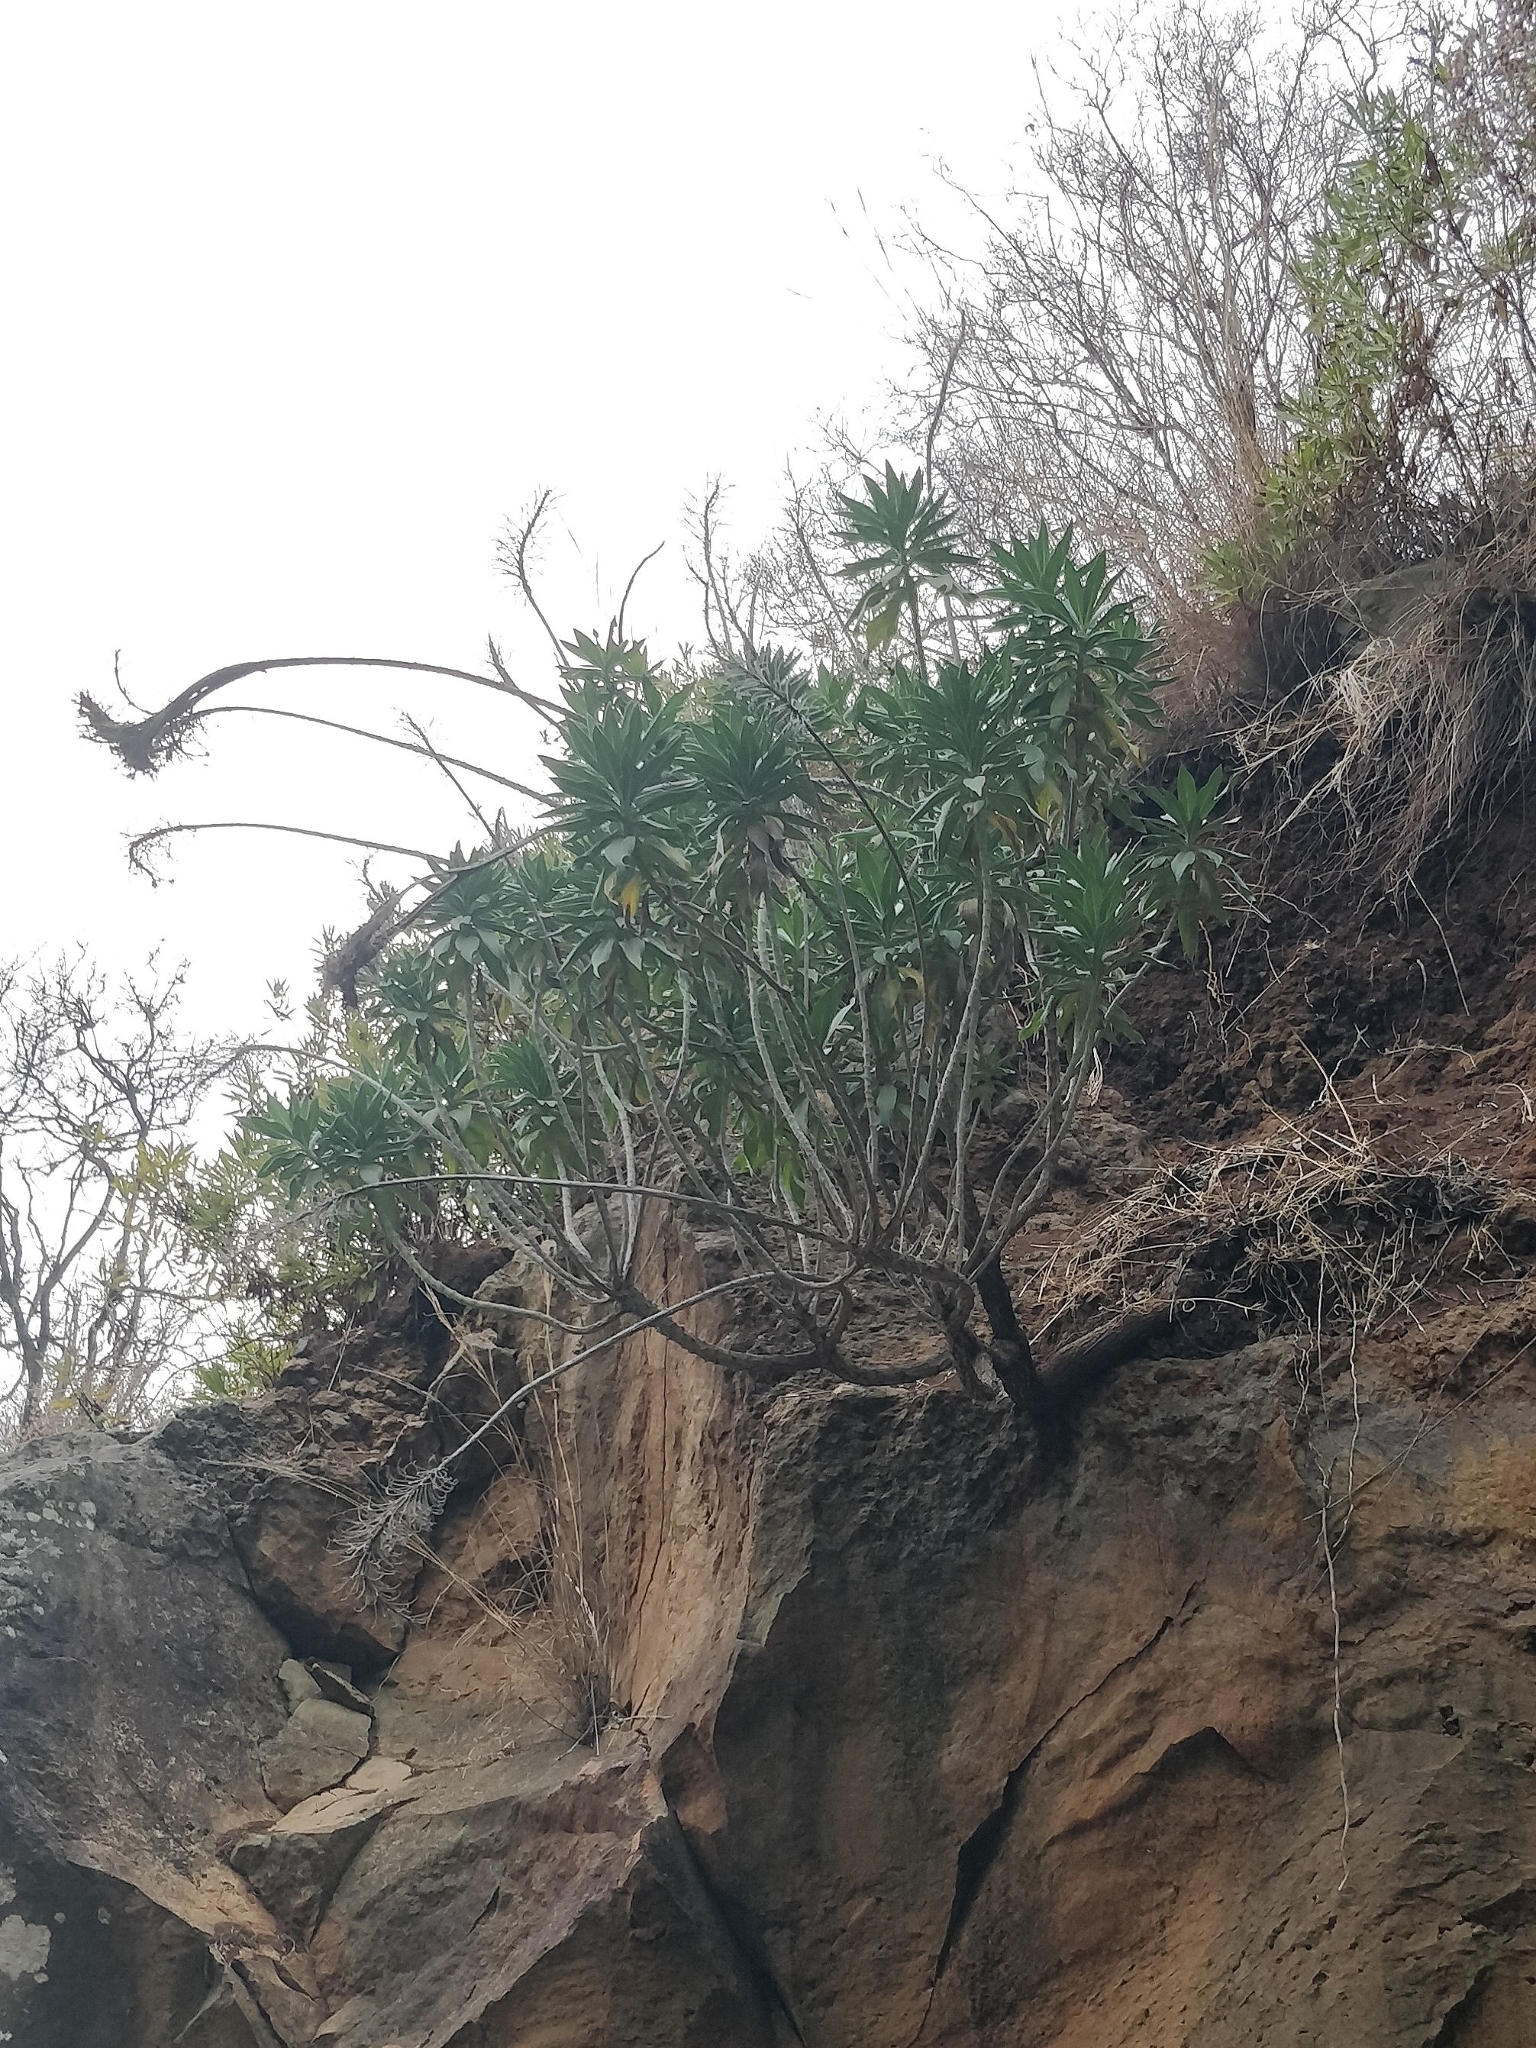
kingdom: Plantae
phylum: Tracheophyta
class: Magnoliopsida
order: Boraginales
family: Boraginaceae
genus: Echium
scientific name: Echium nervosum
